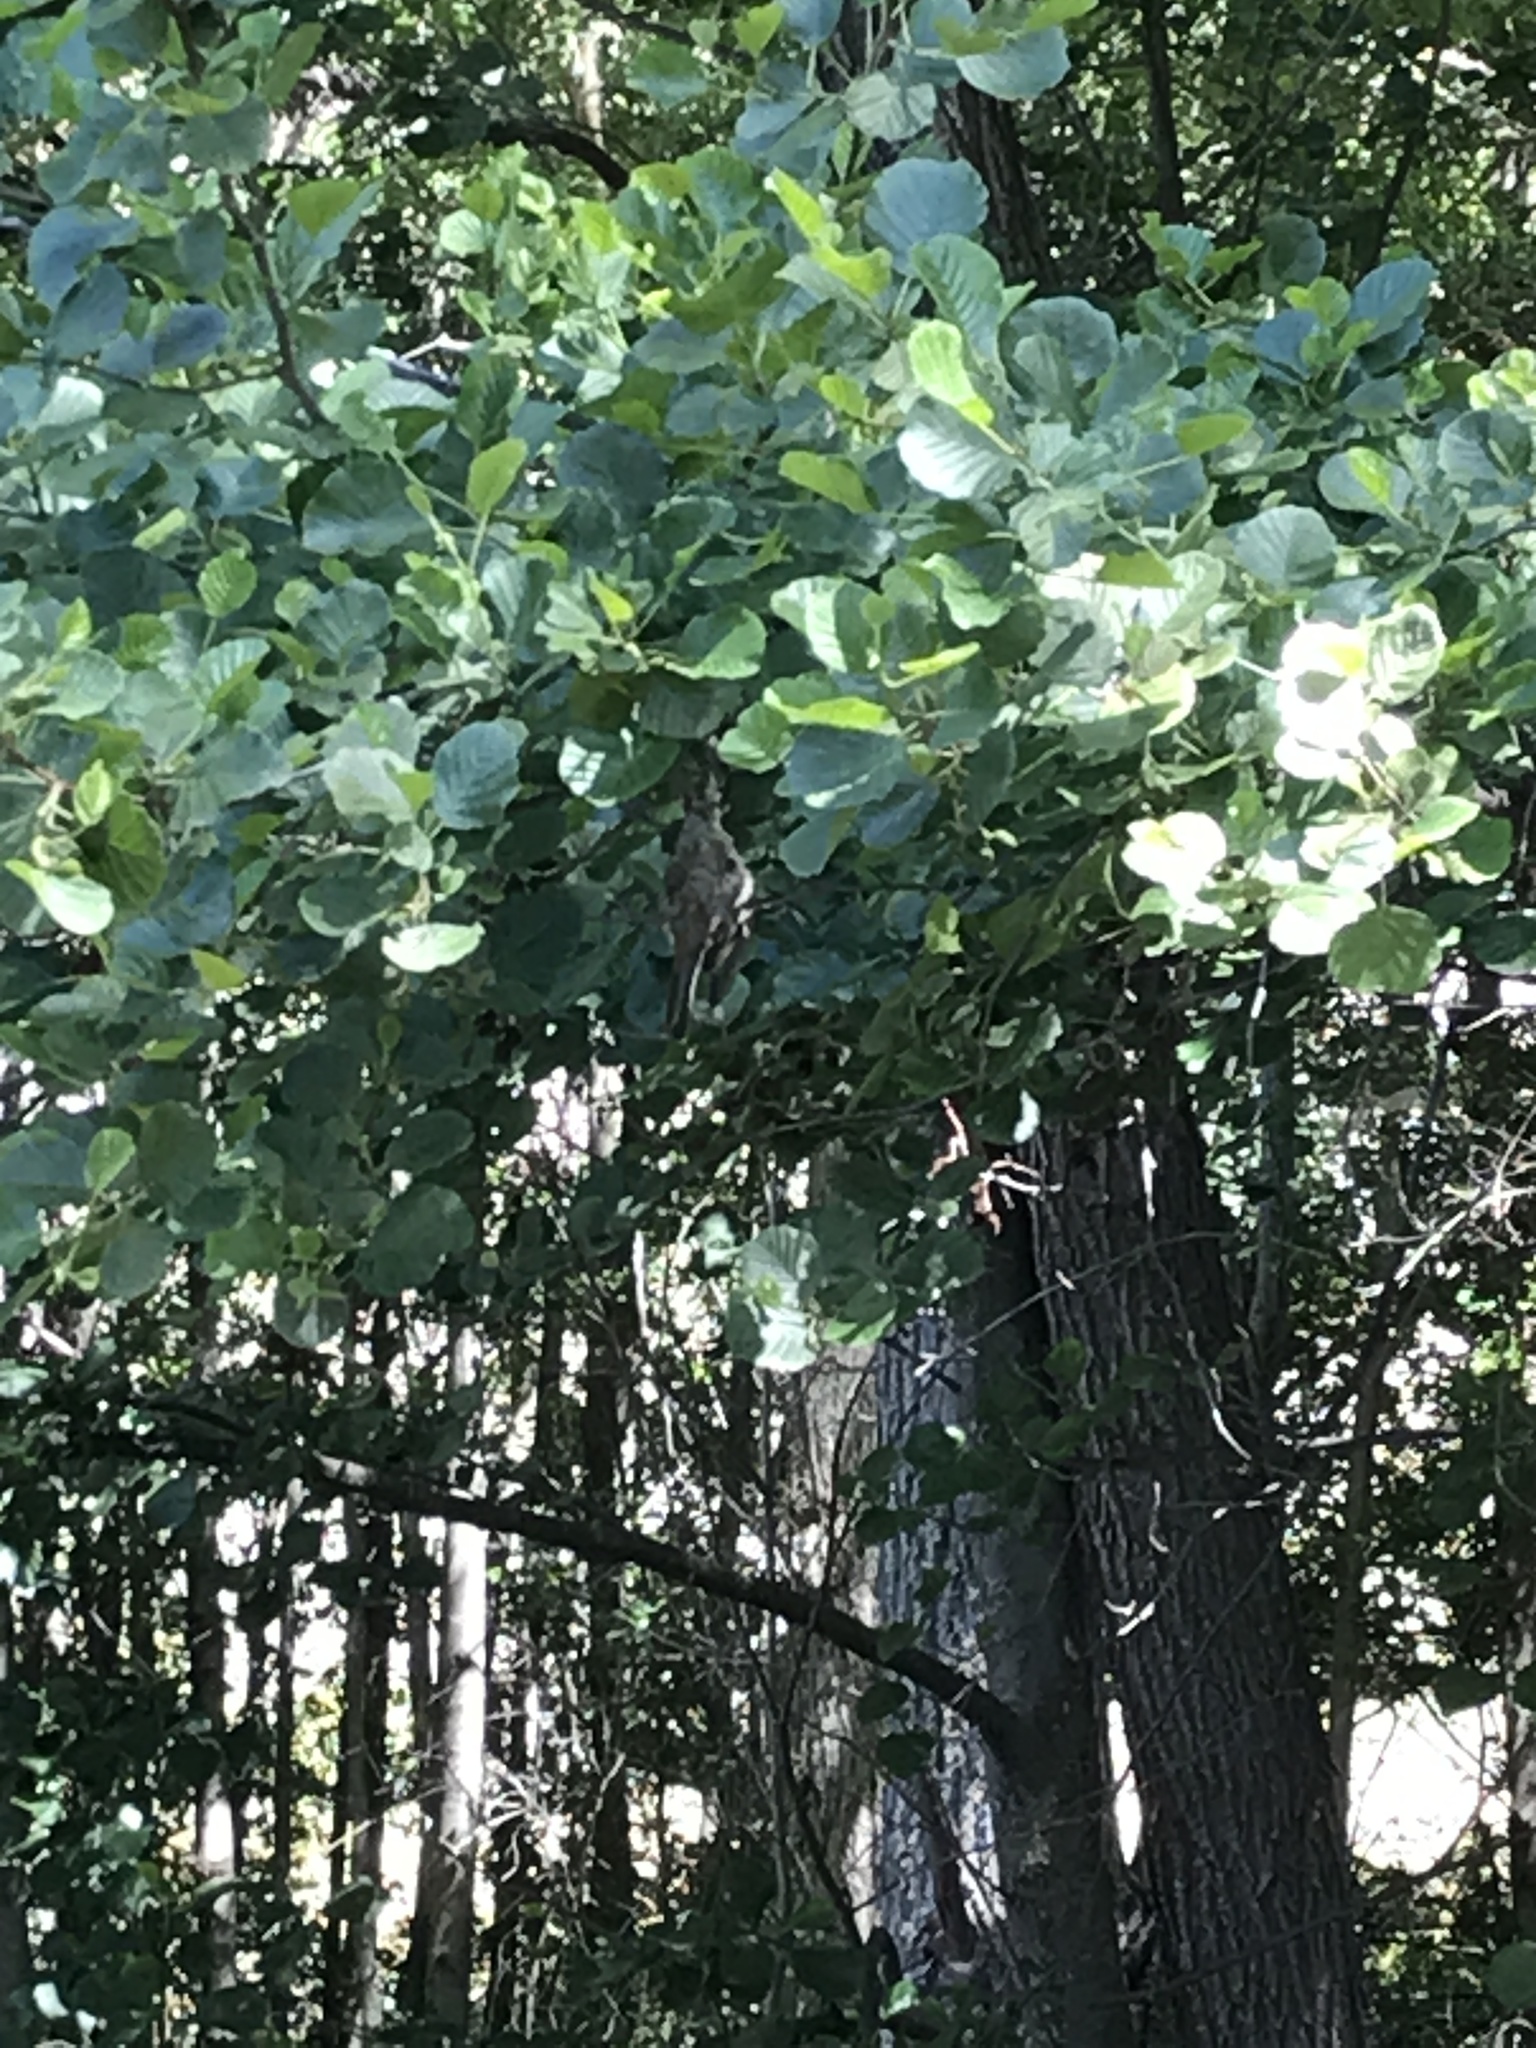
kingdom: Animalia
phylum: Chordata
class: Aves
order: Passeriformes
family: Fringillidae
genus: Fringilla
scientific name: Fringilla coelebs
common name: Common chaffinch
